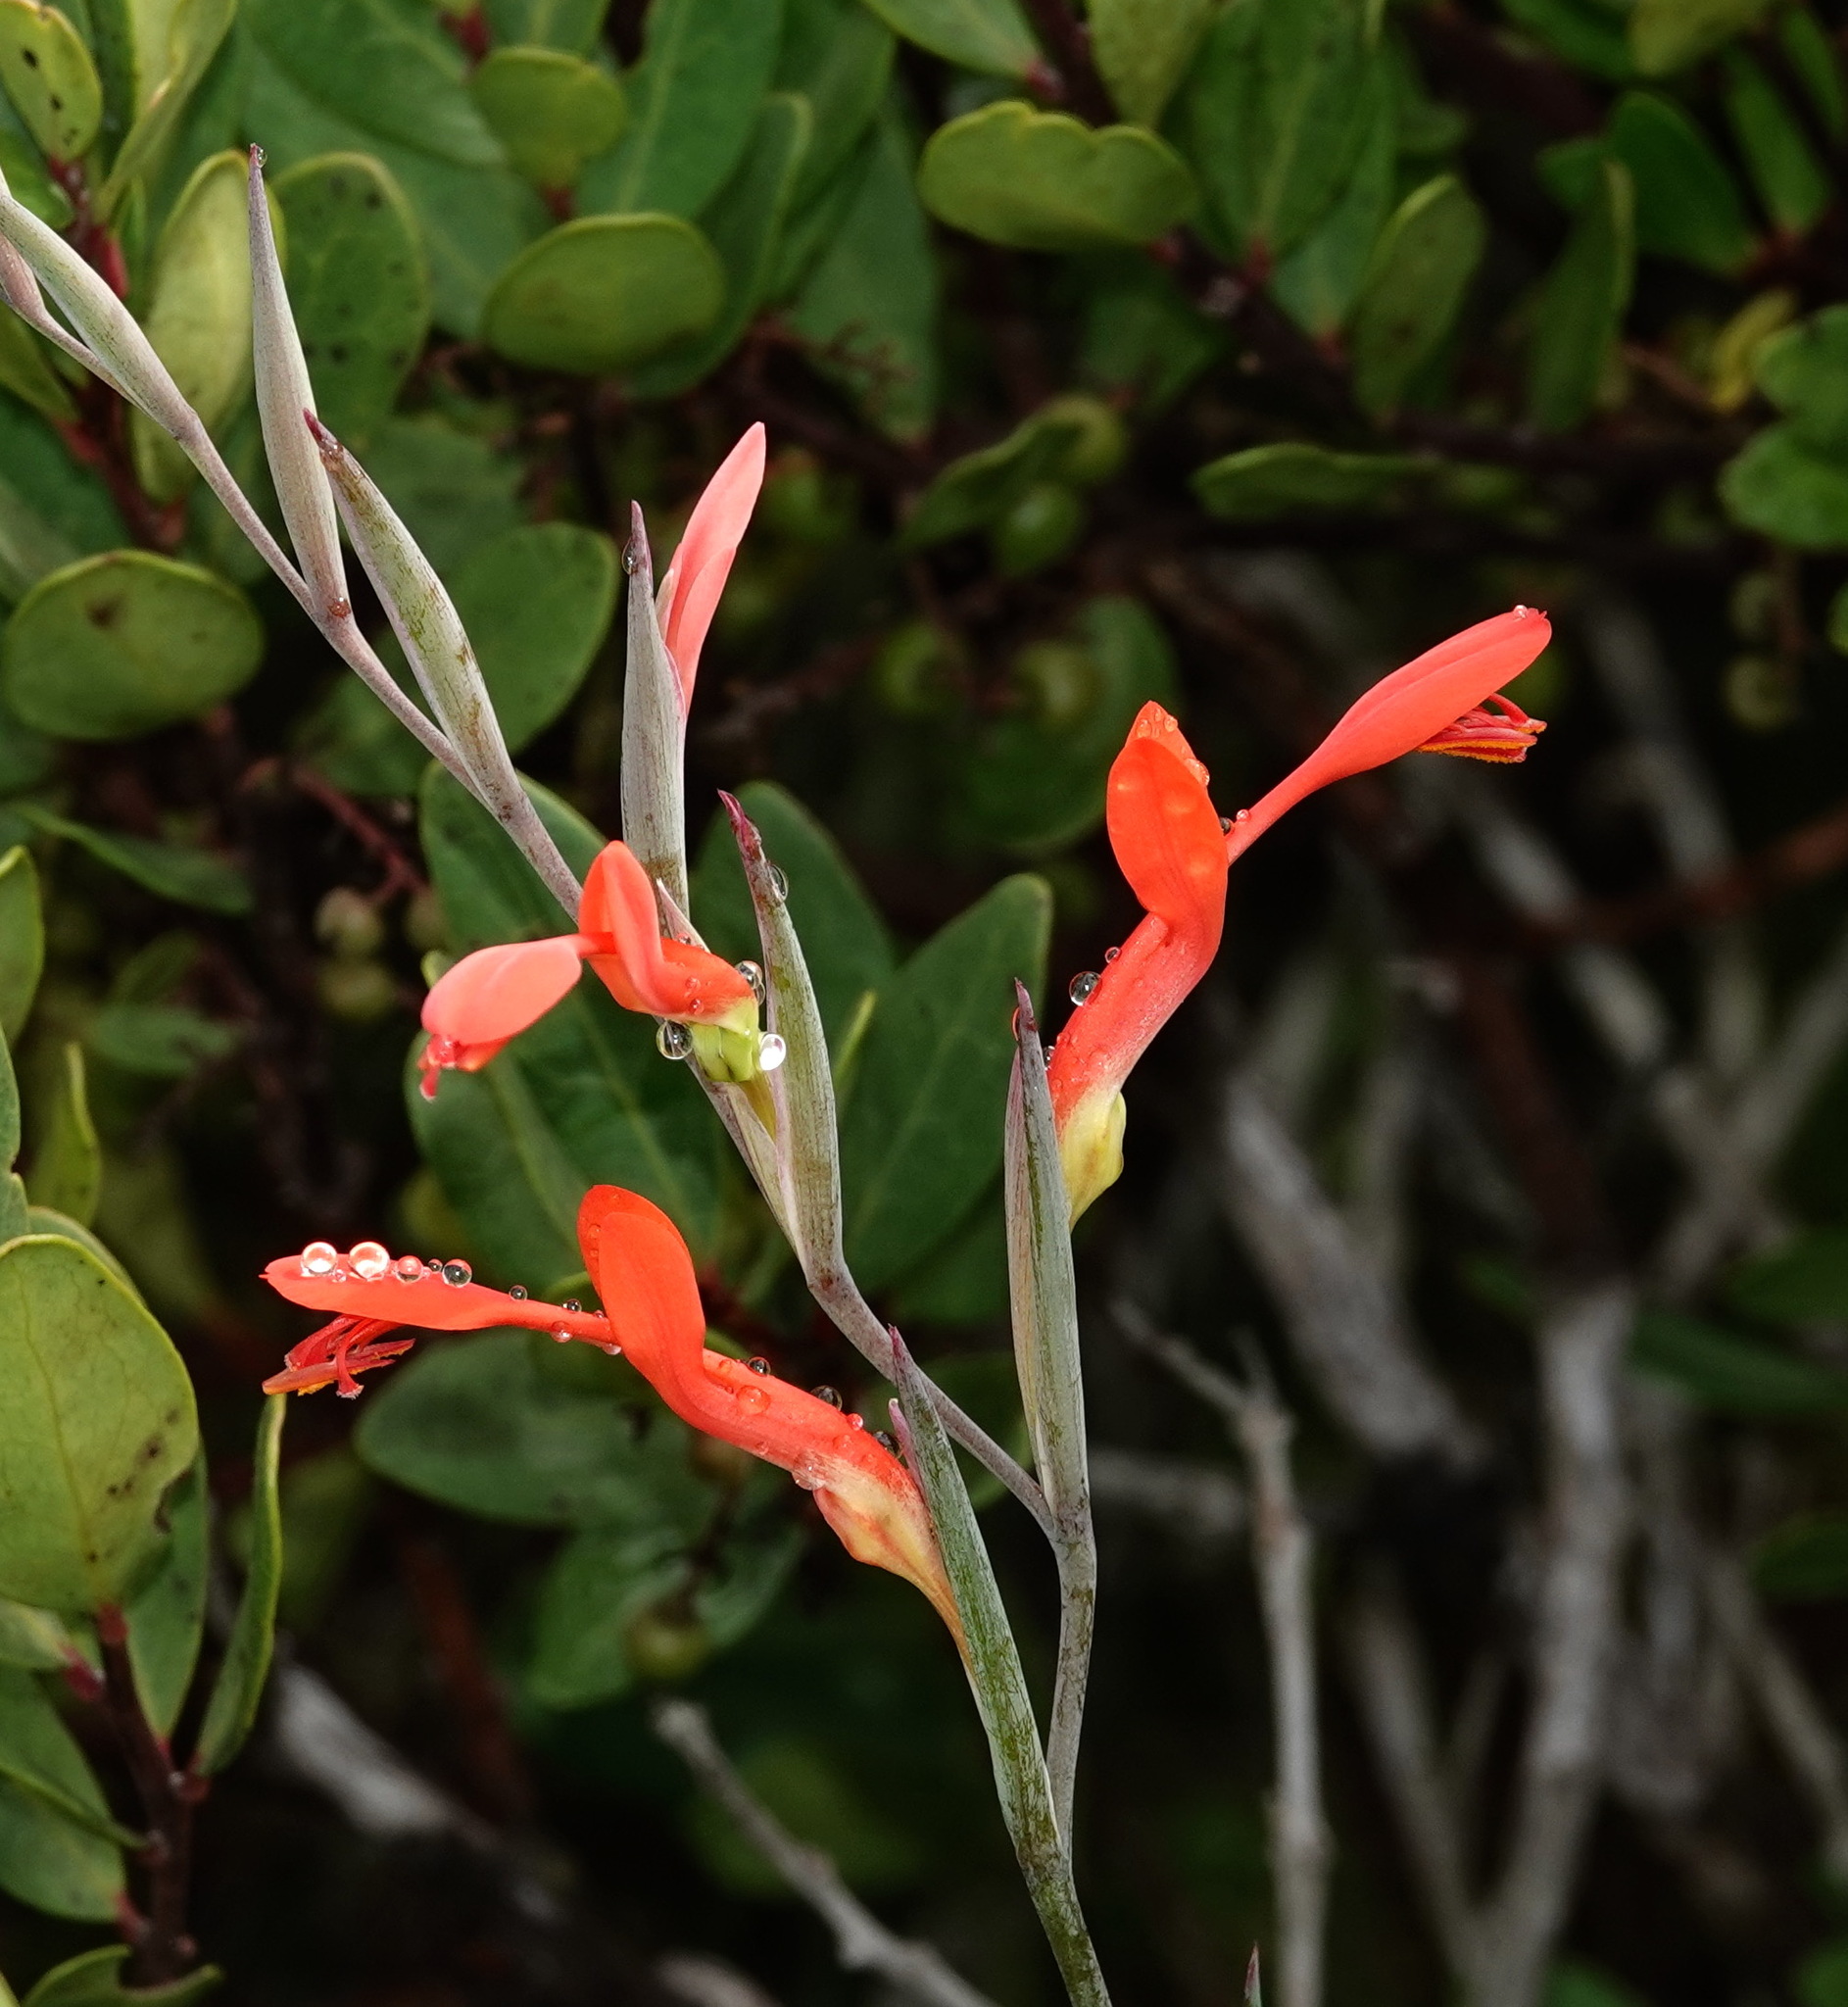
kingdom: Plantae
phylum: Tracheophyta
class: Liliopsida
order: Asparagales
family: Iridaceae
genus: Gladiolus
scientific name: Gladiolus cunonius
